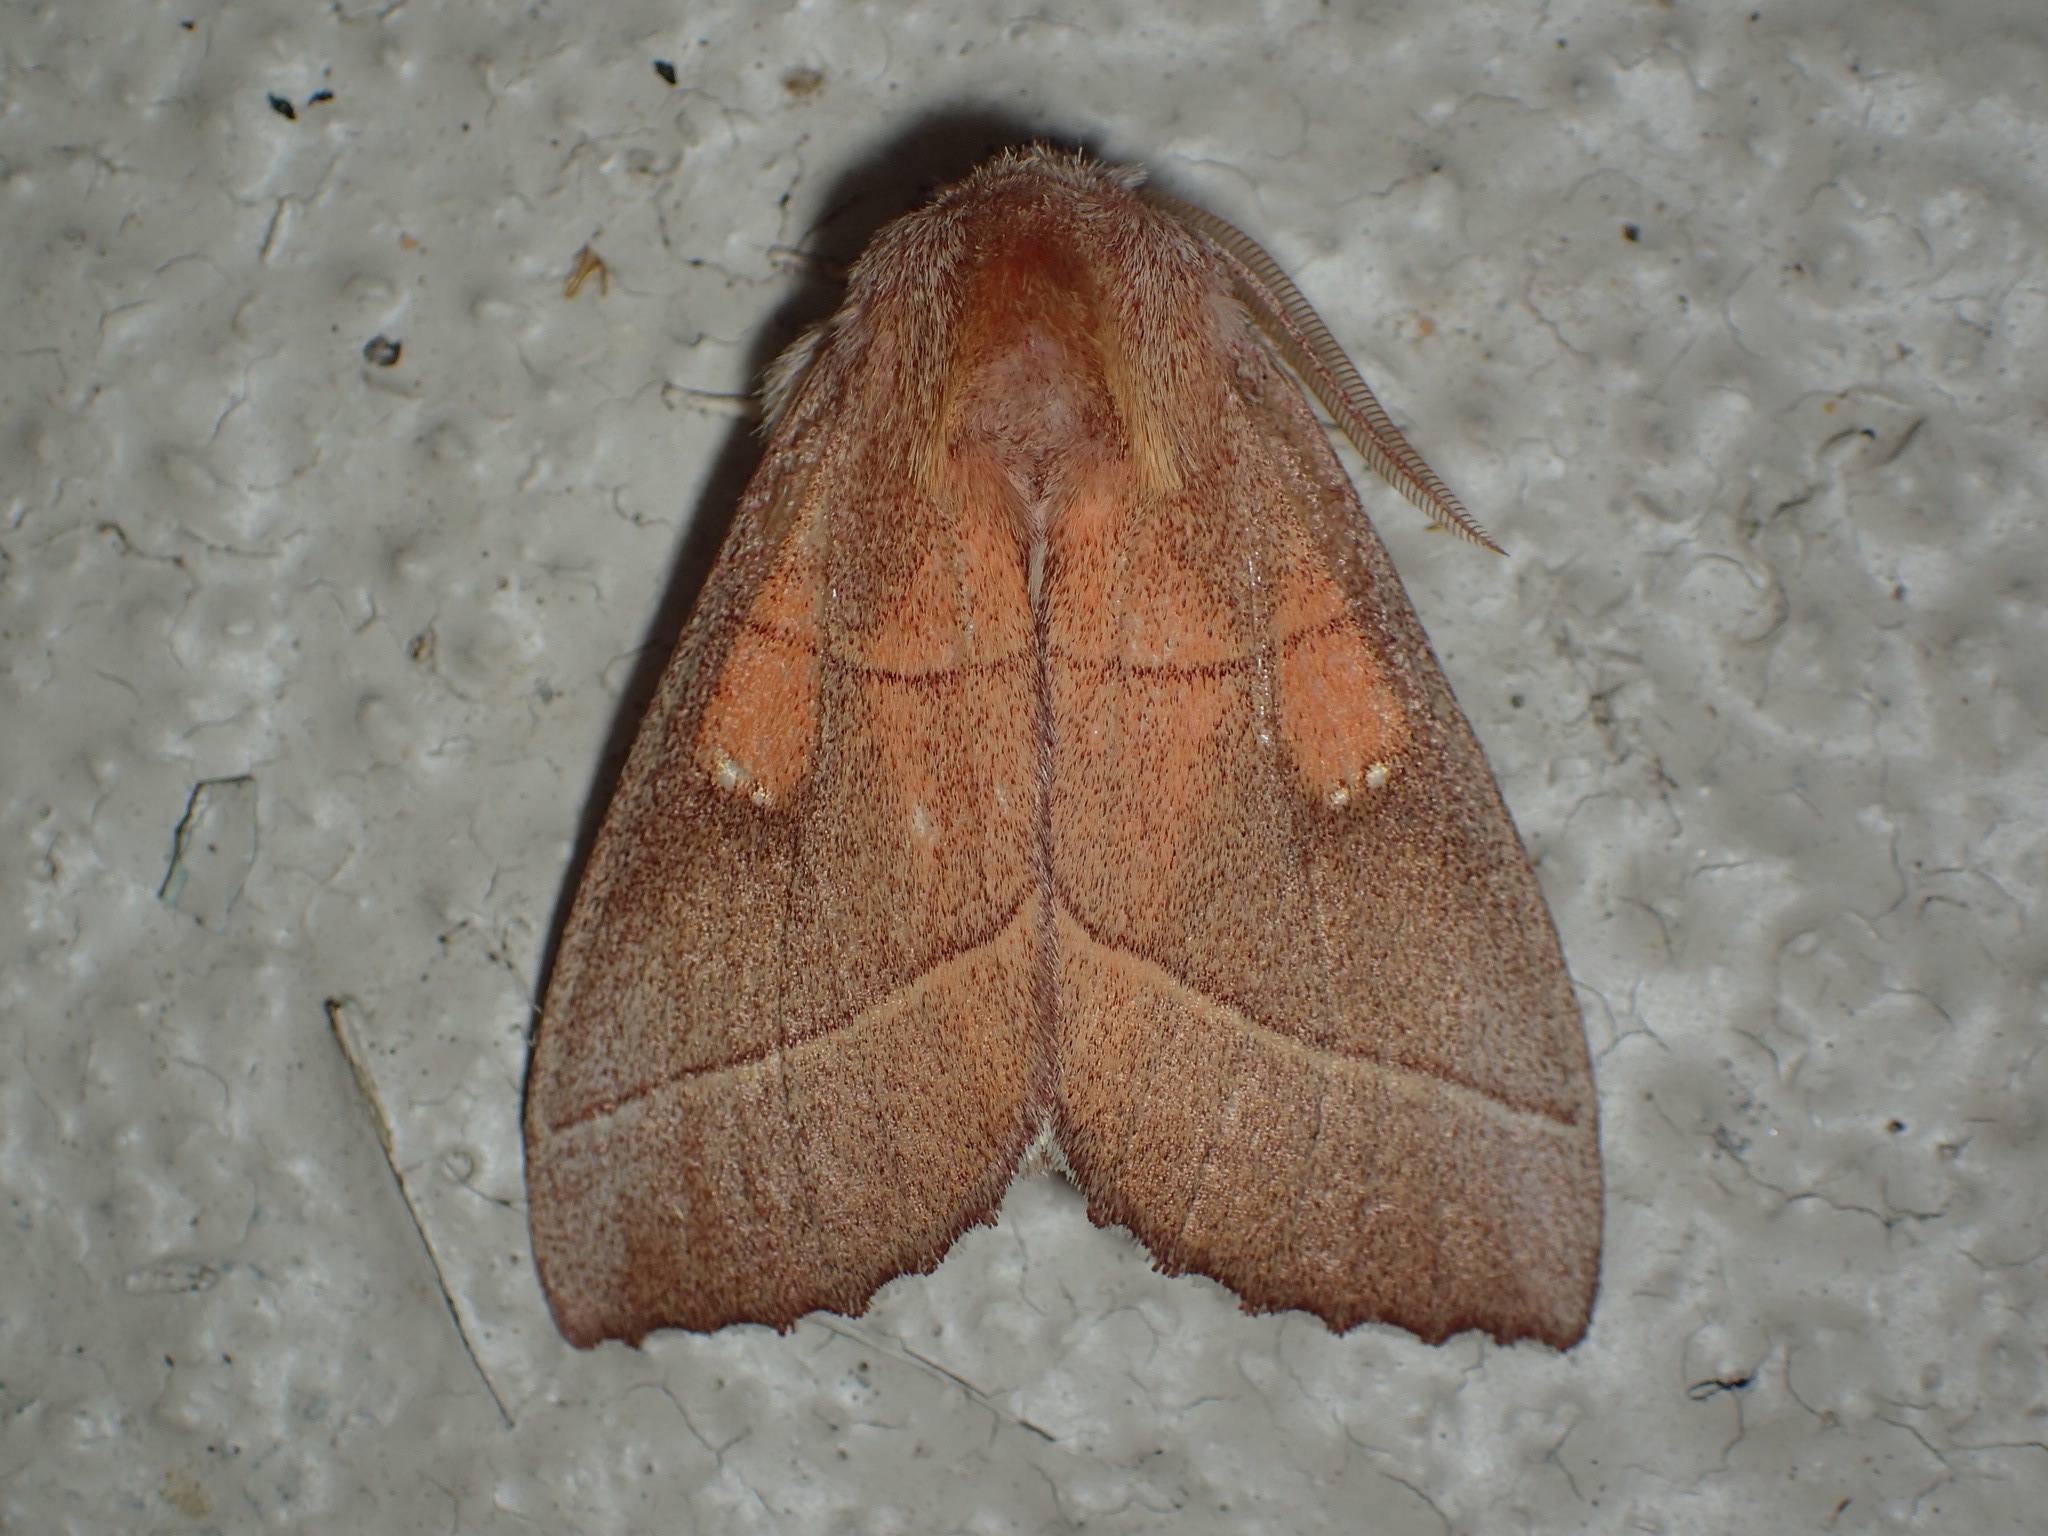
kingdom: Animalia
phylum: Arthropoda
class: Insecta
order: Lepidoptera
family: Notodontidae
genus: Nadata
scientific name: Nadata gibbosa
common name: White-dotted prominent
